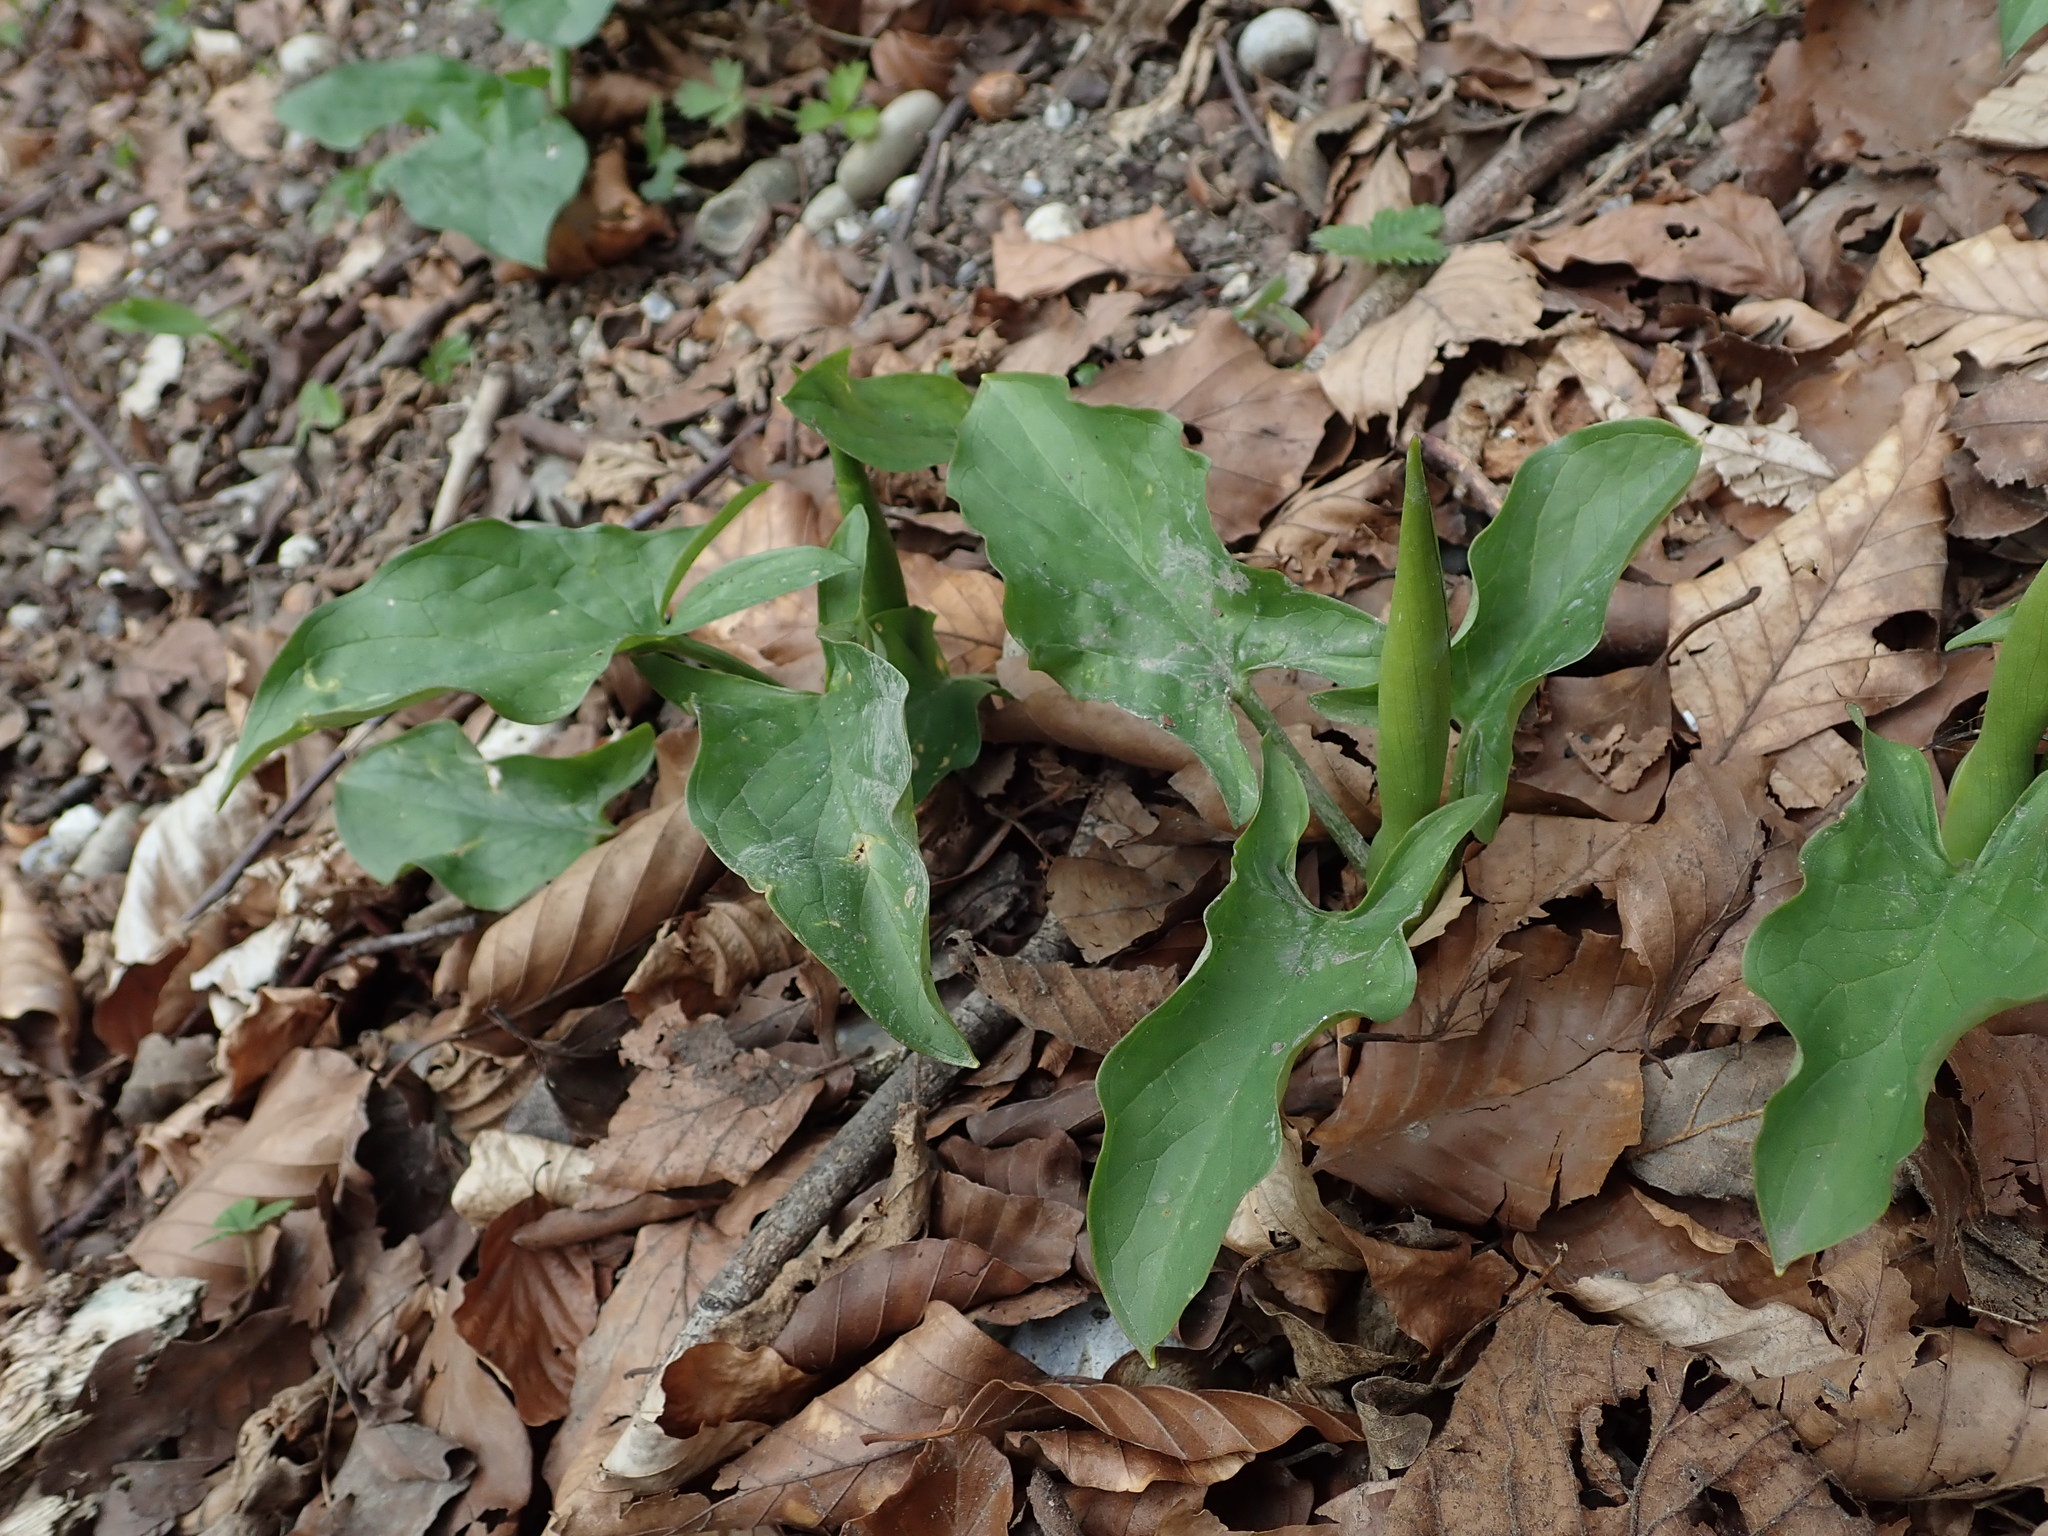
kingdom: Plantae
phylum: Tracheophyta
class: Liliopsida
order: Alismatales
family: Araceae
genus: Arum
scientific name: Arum maculatum
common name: Lords-and-ladies
